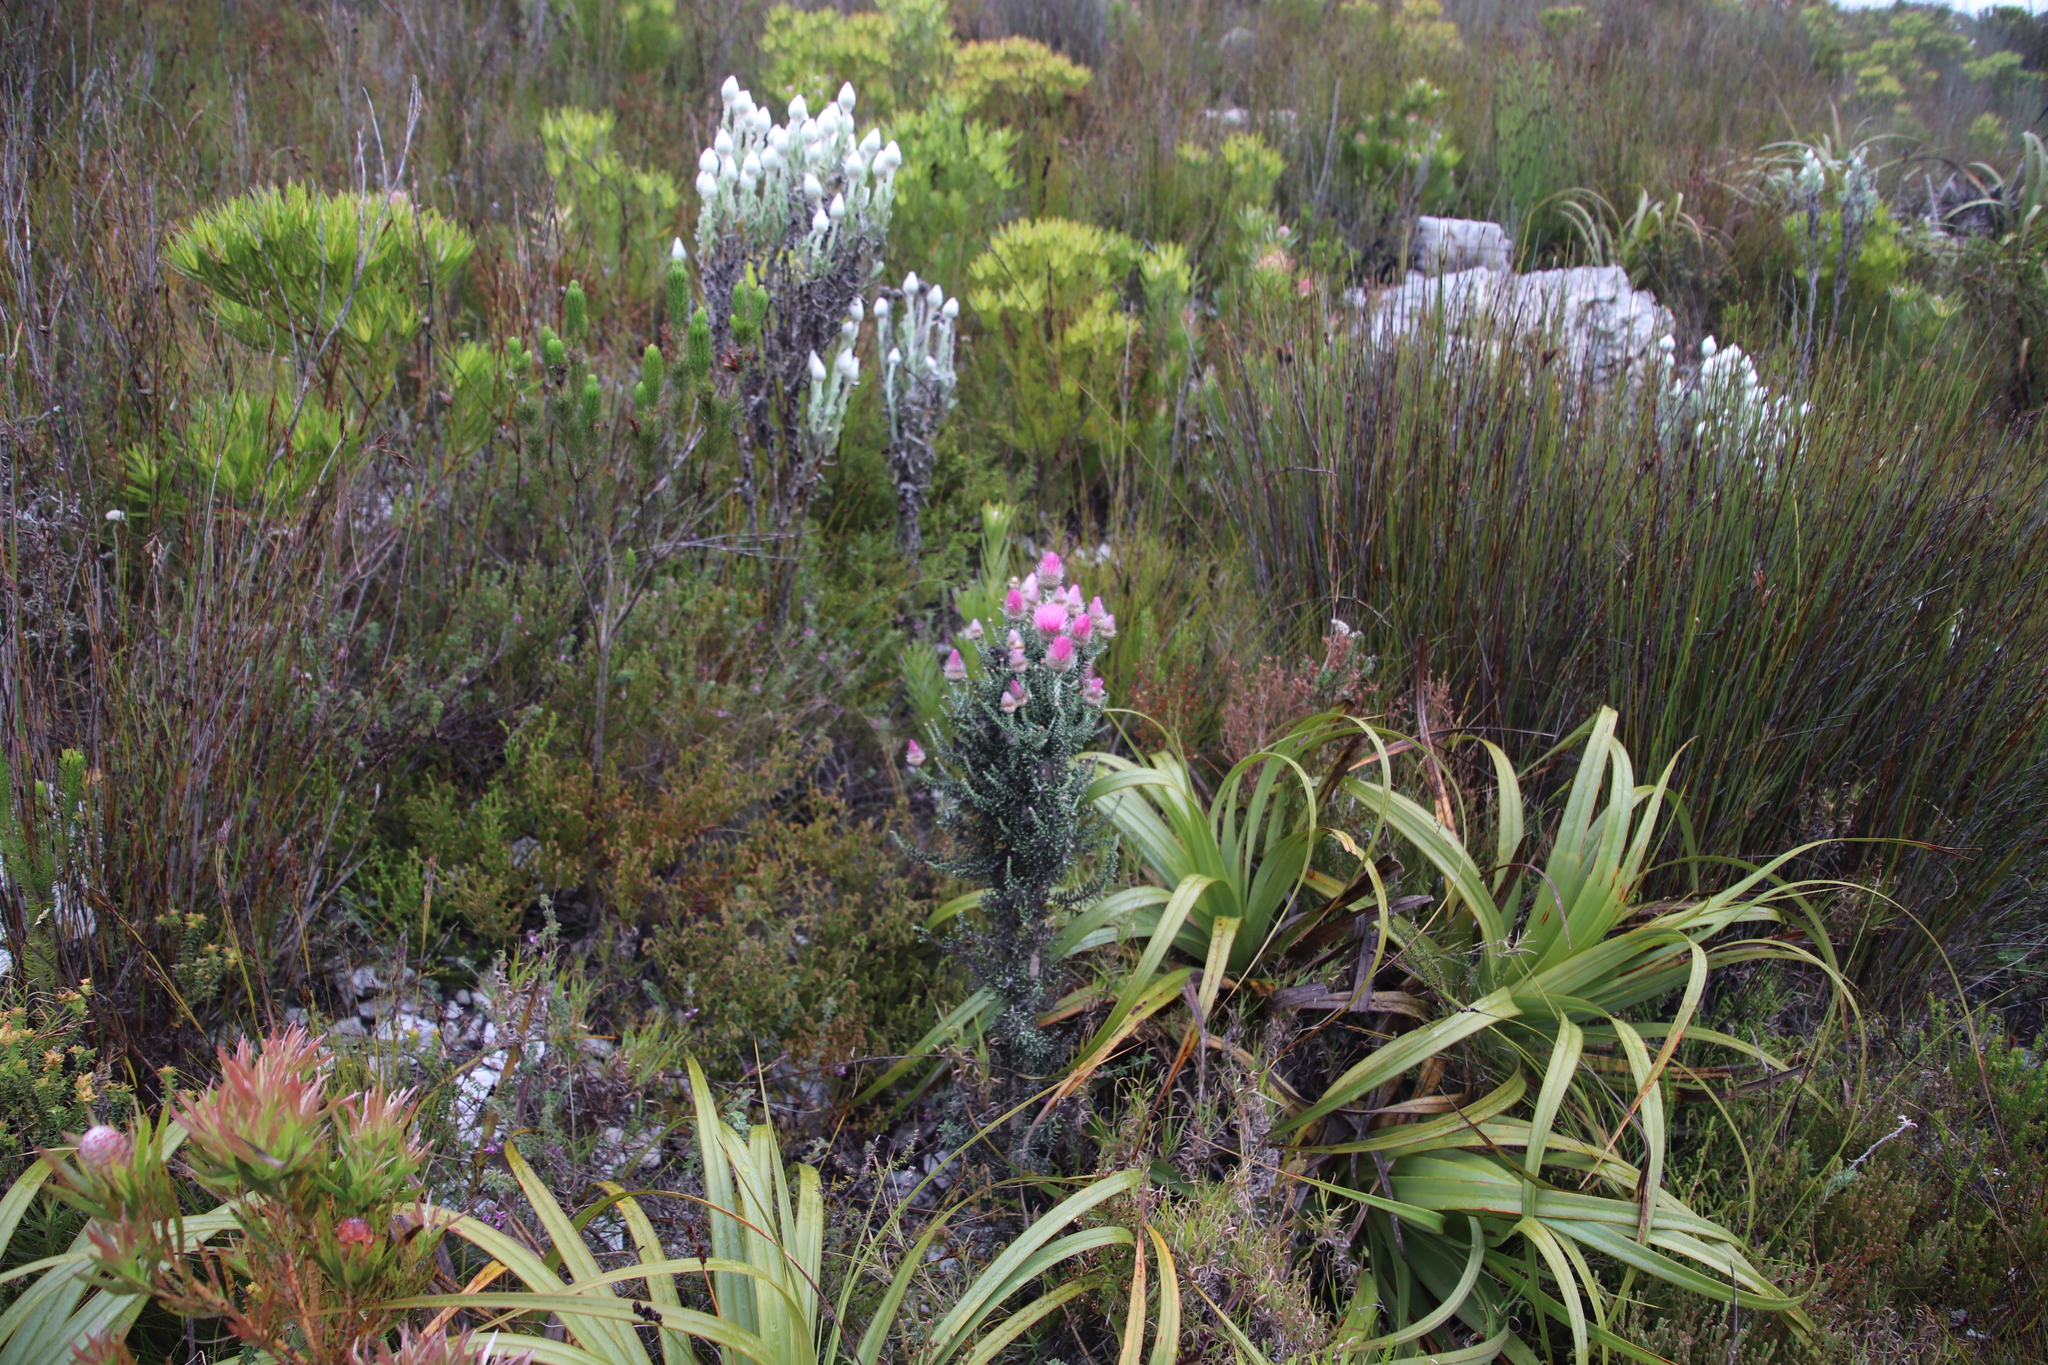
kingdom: Plantae
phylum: Tracheophyta
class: Magnoliopsida
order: Asterales
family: Asteraceae
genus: Phaenocoma
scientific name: Phaenocoma prolifera
